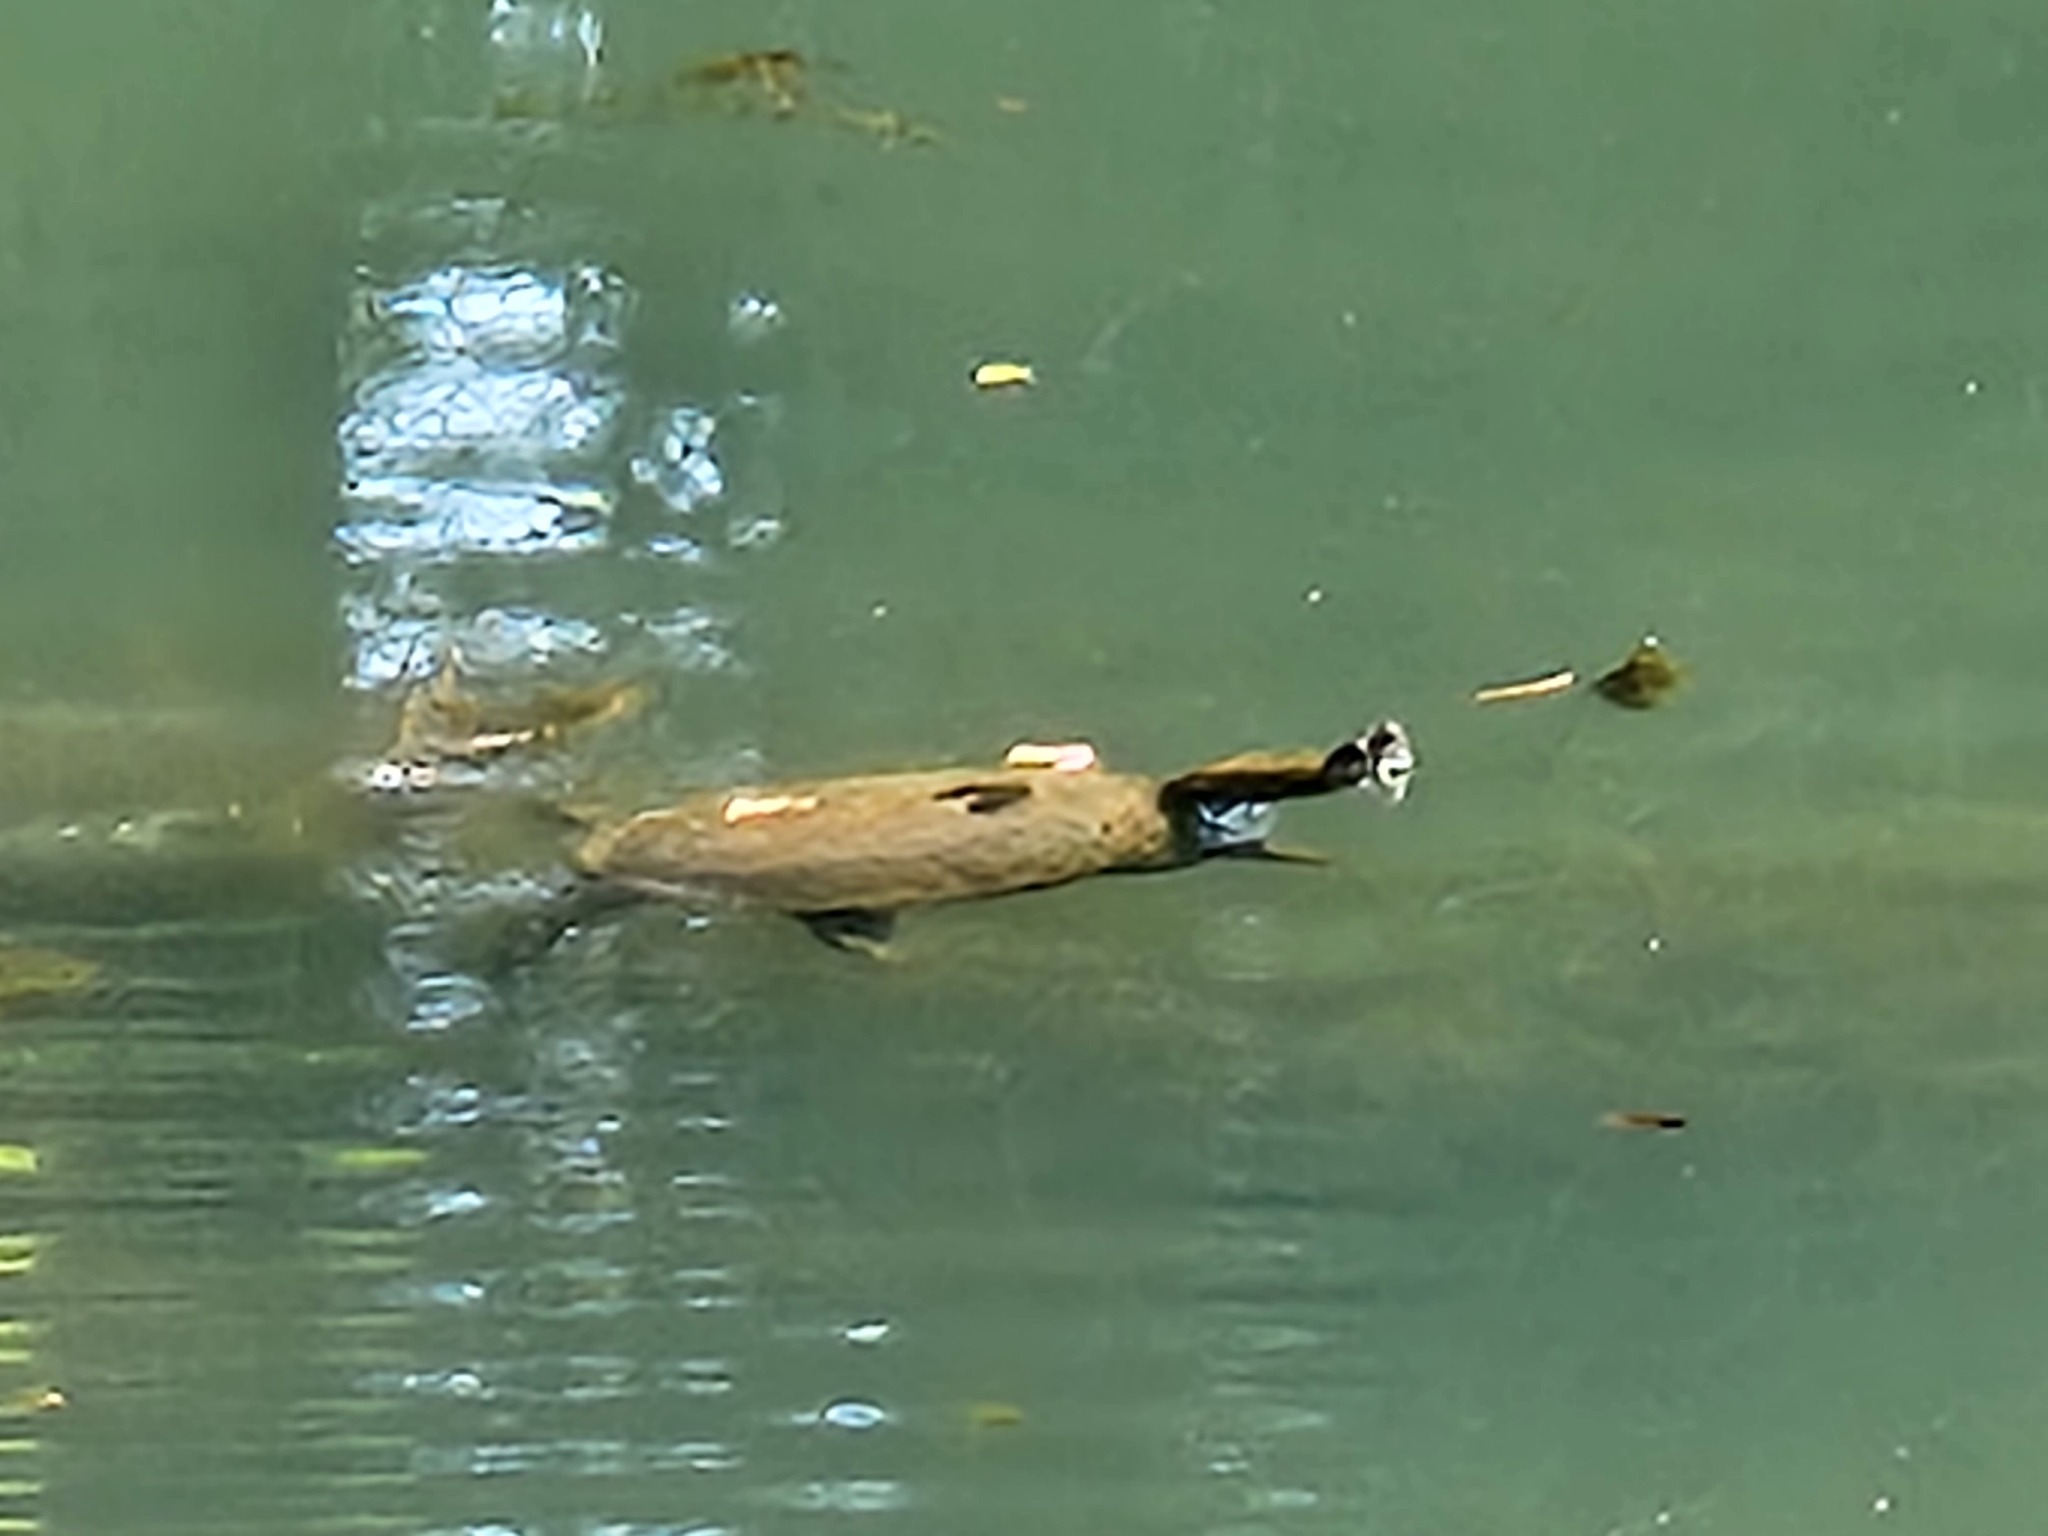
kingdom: Animalia
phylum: Chordata
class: Testudines
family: Trionychidae
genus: Apalone
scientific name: Apalone spinifera
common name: Spiny softshell turtle
